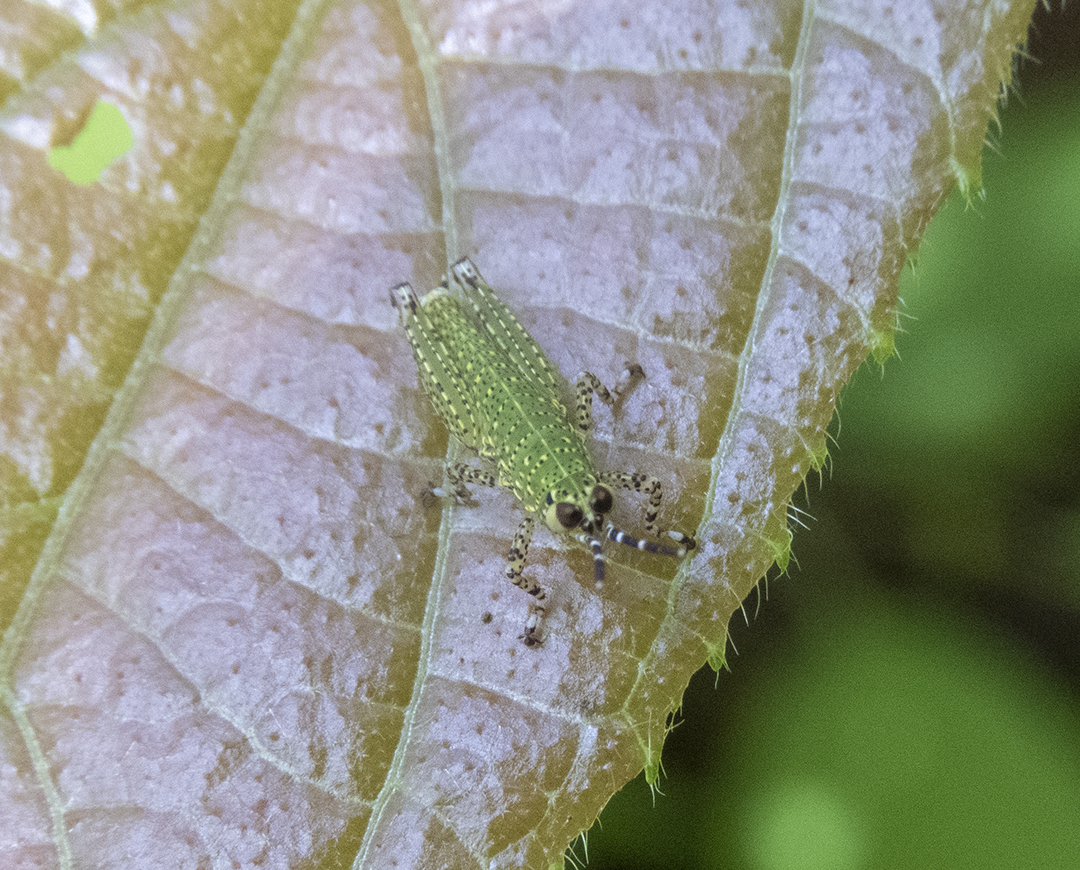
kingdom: Animalia
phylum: Arthropoda
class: Insecta
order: Orthoptera
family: Acrididae
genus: Xenocatantops
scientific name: Xenocatantops humile
